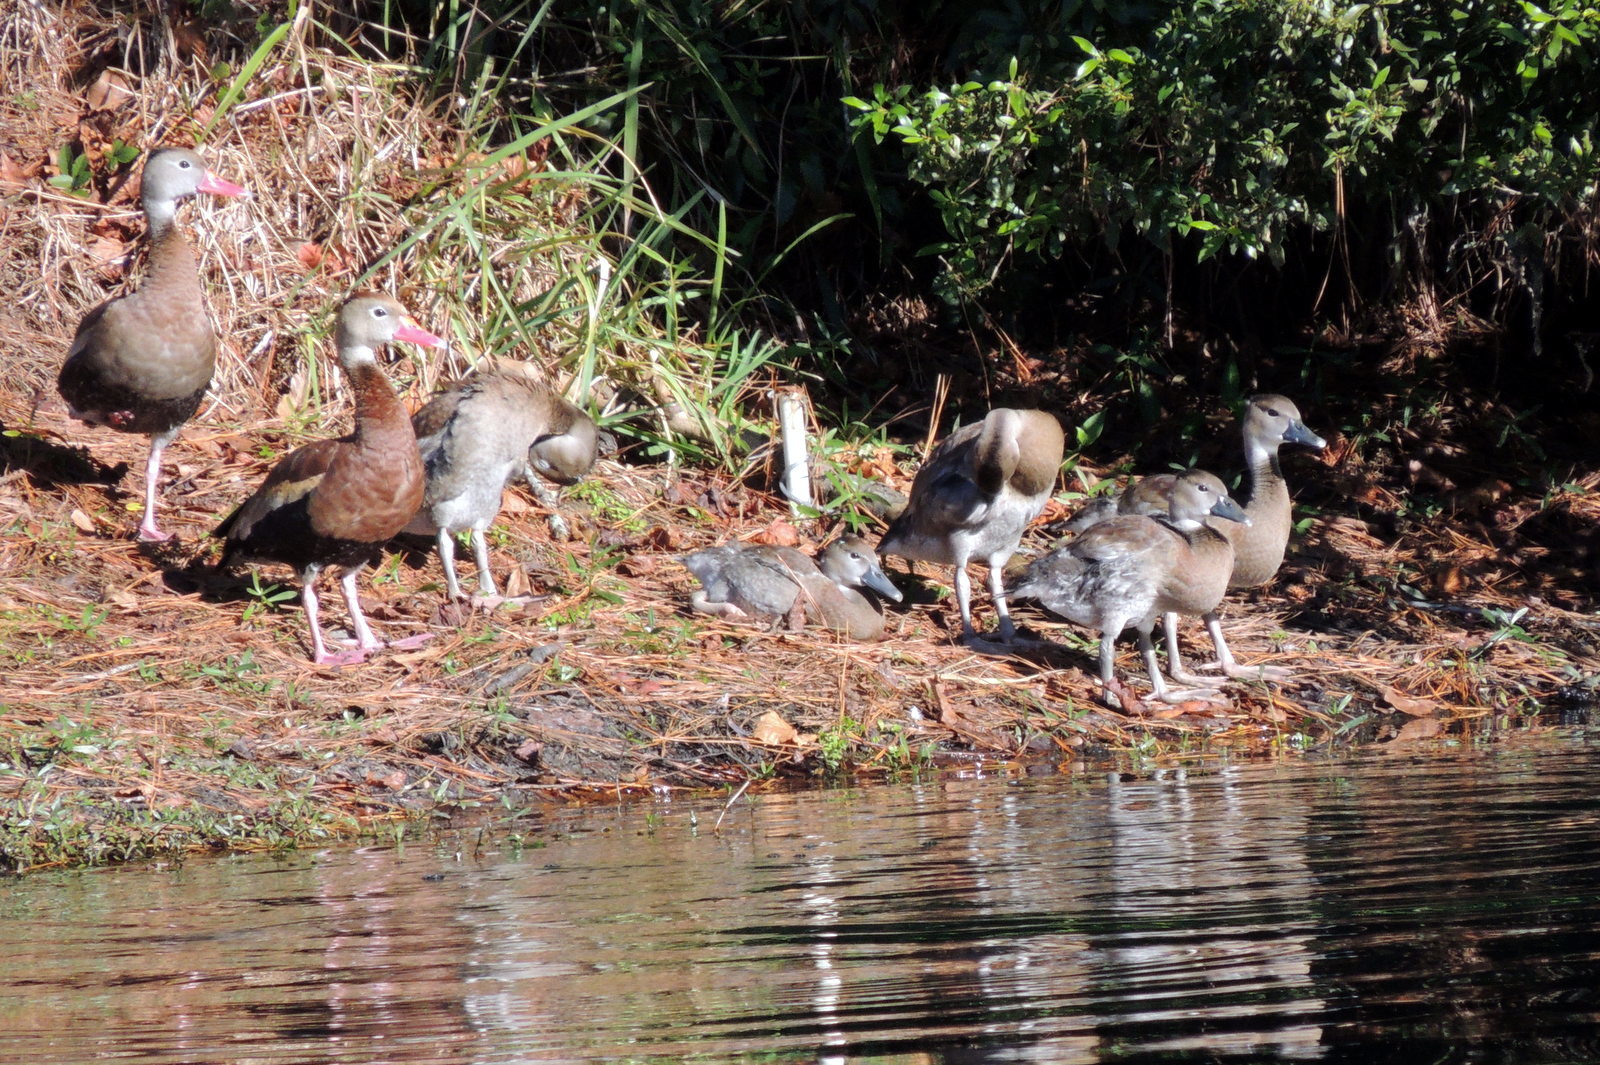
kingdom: Animalia
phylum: Chordata
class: Aves
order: Anseriformes
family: Anatidae
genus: Dendrocygna
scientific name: Dendrocygna autumnalis
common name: Black-bellied whistling duck
